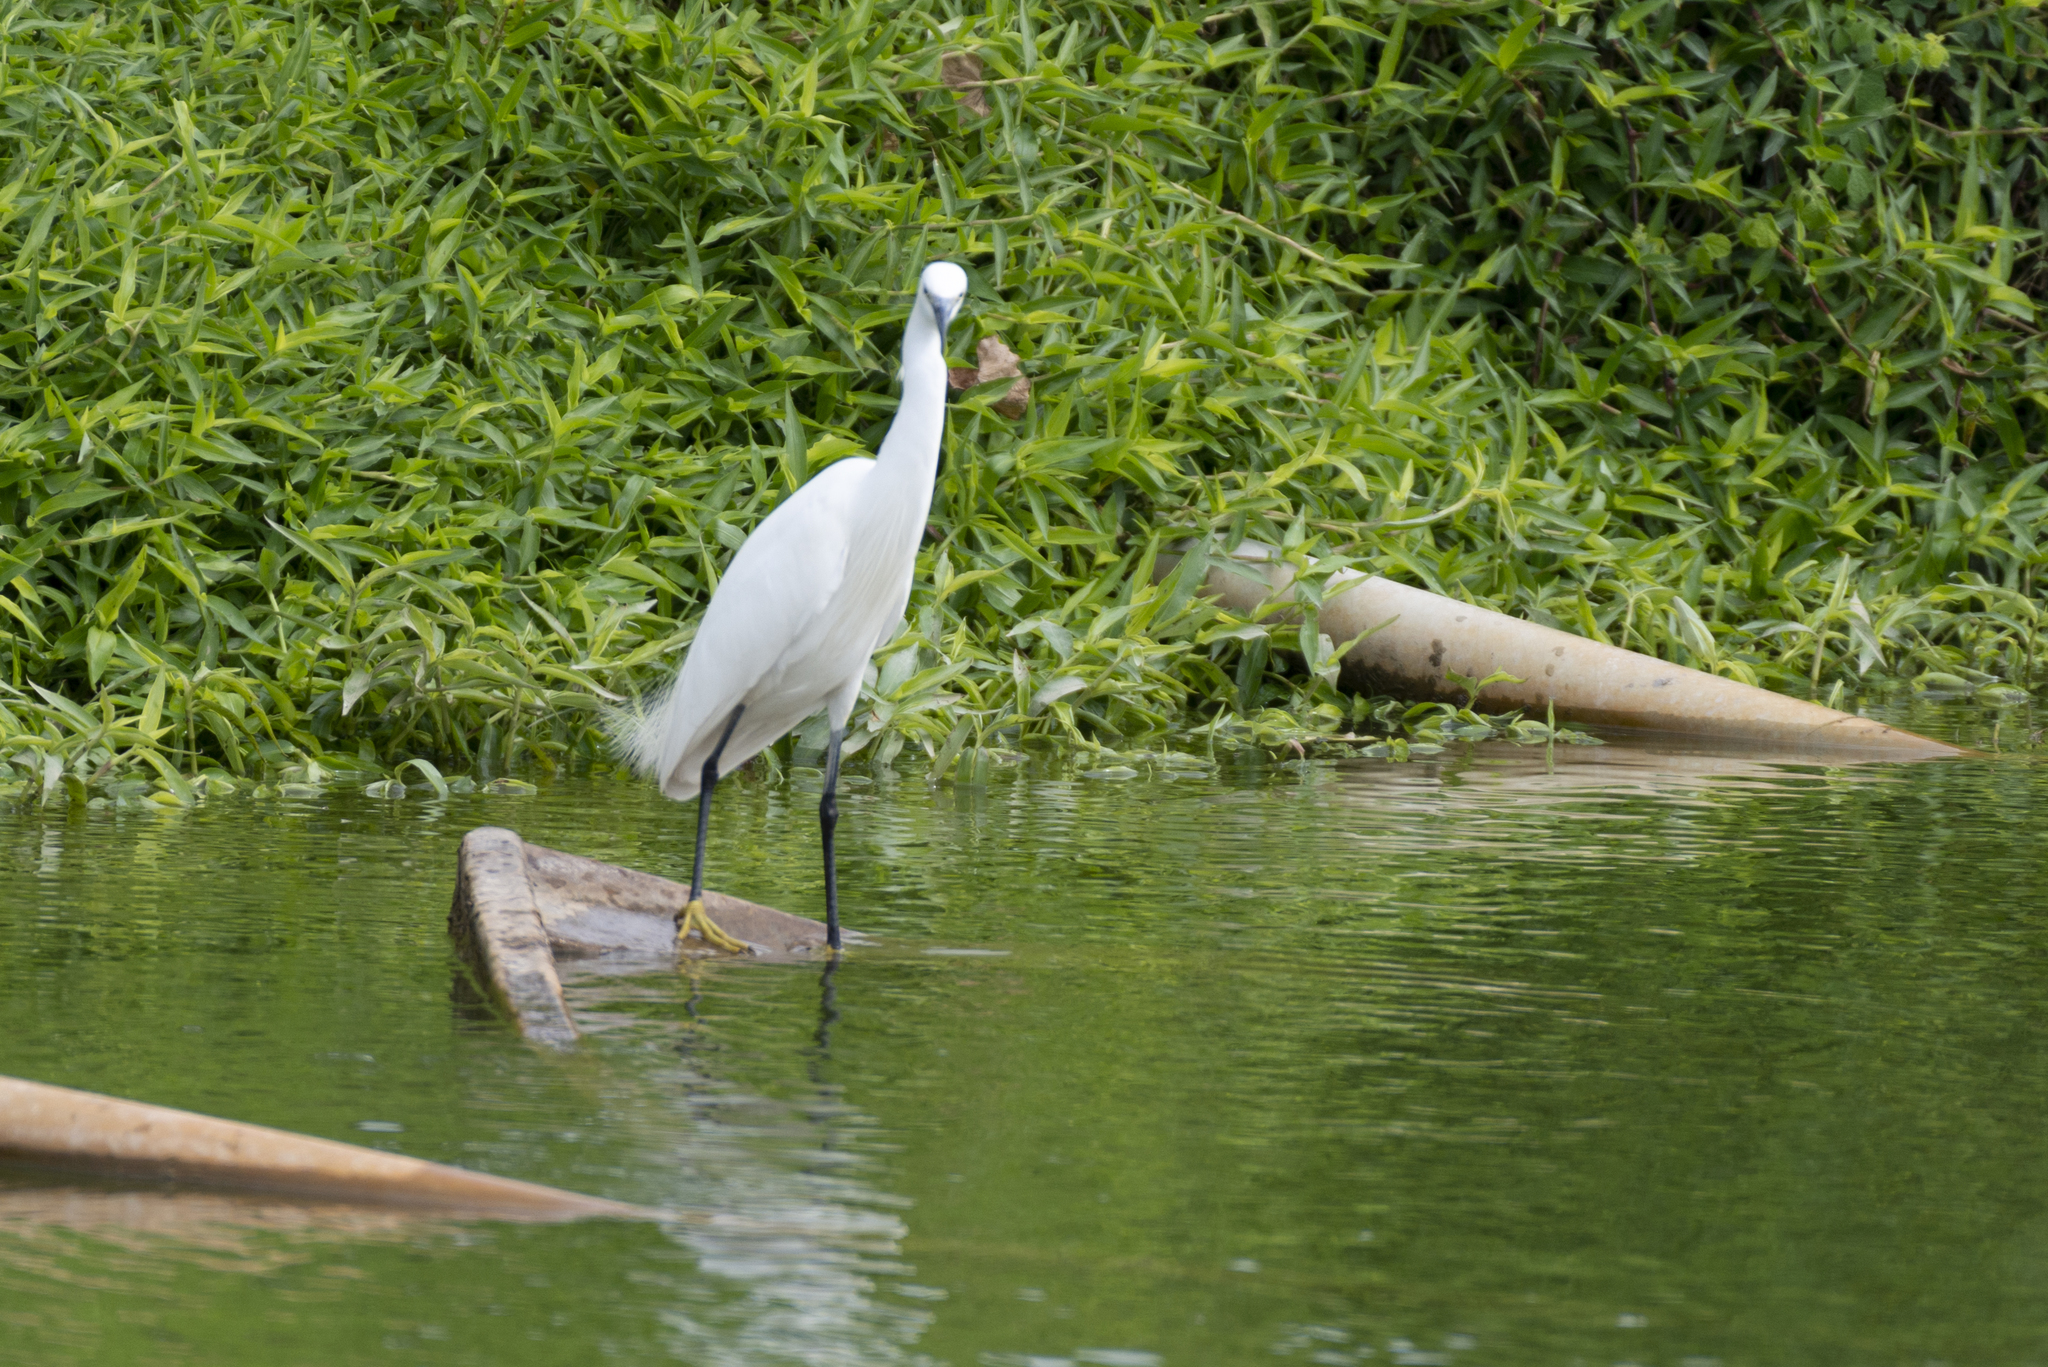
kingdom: Animalia
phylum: Chordata
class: Aves
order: Pelecaniformes
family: Ardeidae
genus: Egretta
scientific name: Egretta garzetta
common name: Little egret
